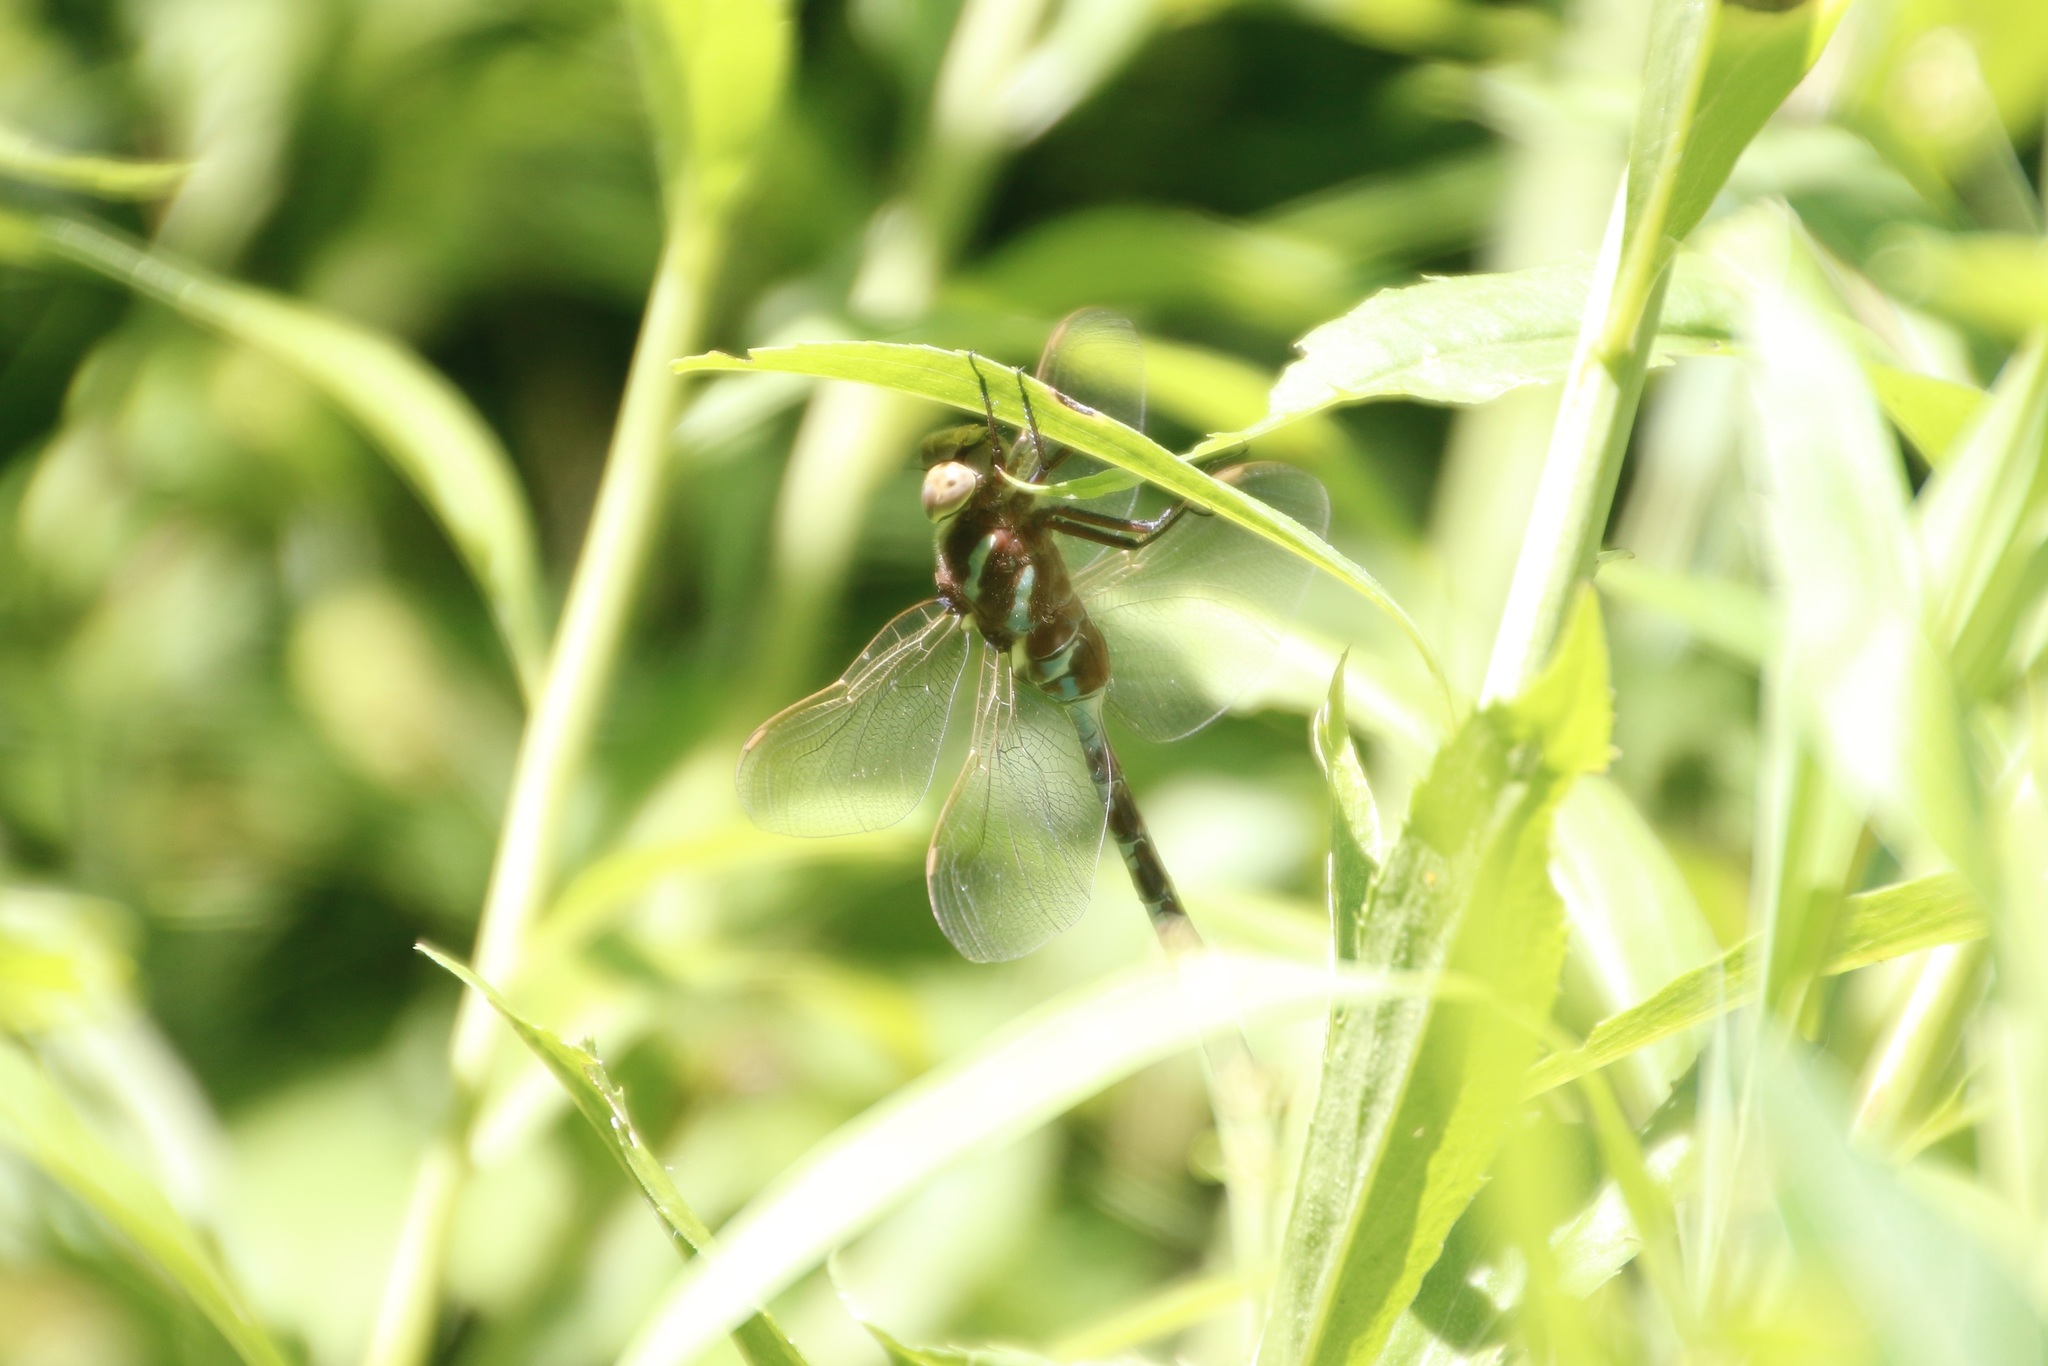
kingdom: Animalia
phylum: Arthropoda
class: Insecta
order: Odonata
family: Aeshnidae
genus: Aeshna
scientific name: Aeshna constricta
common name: Lance-tipped darner
